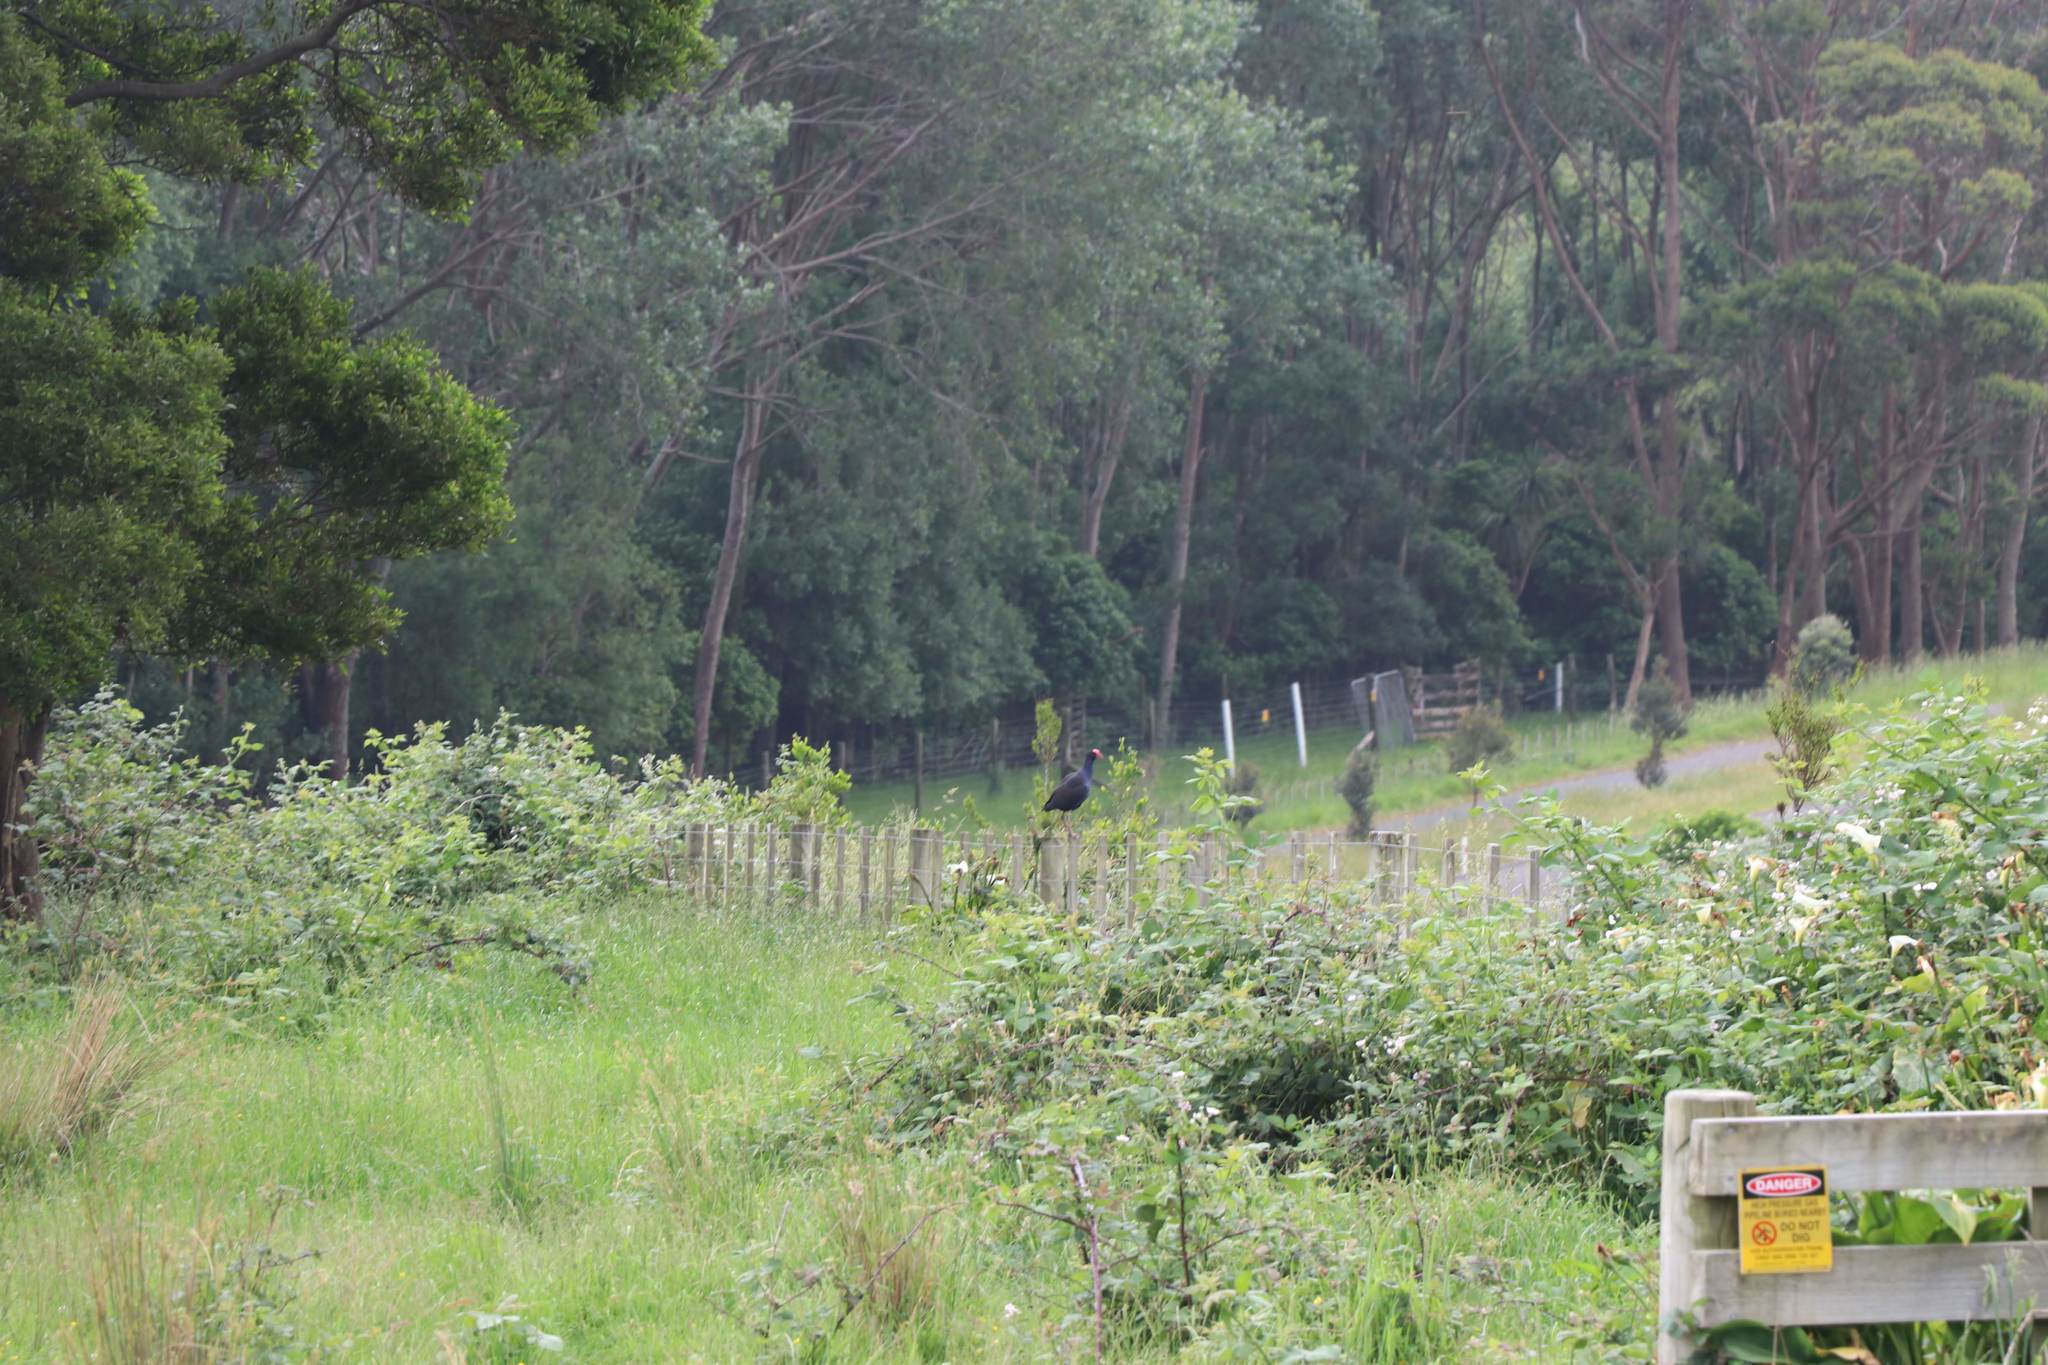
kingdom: Animalia
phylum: Chordata
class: Aves
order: Gruiformes
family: Rallidae
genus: Porphyrio
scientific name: Porphyrio melanotus
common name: Australasian swamphen
